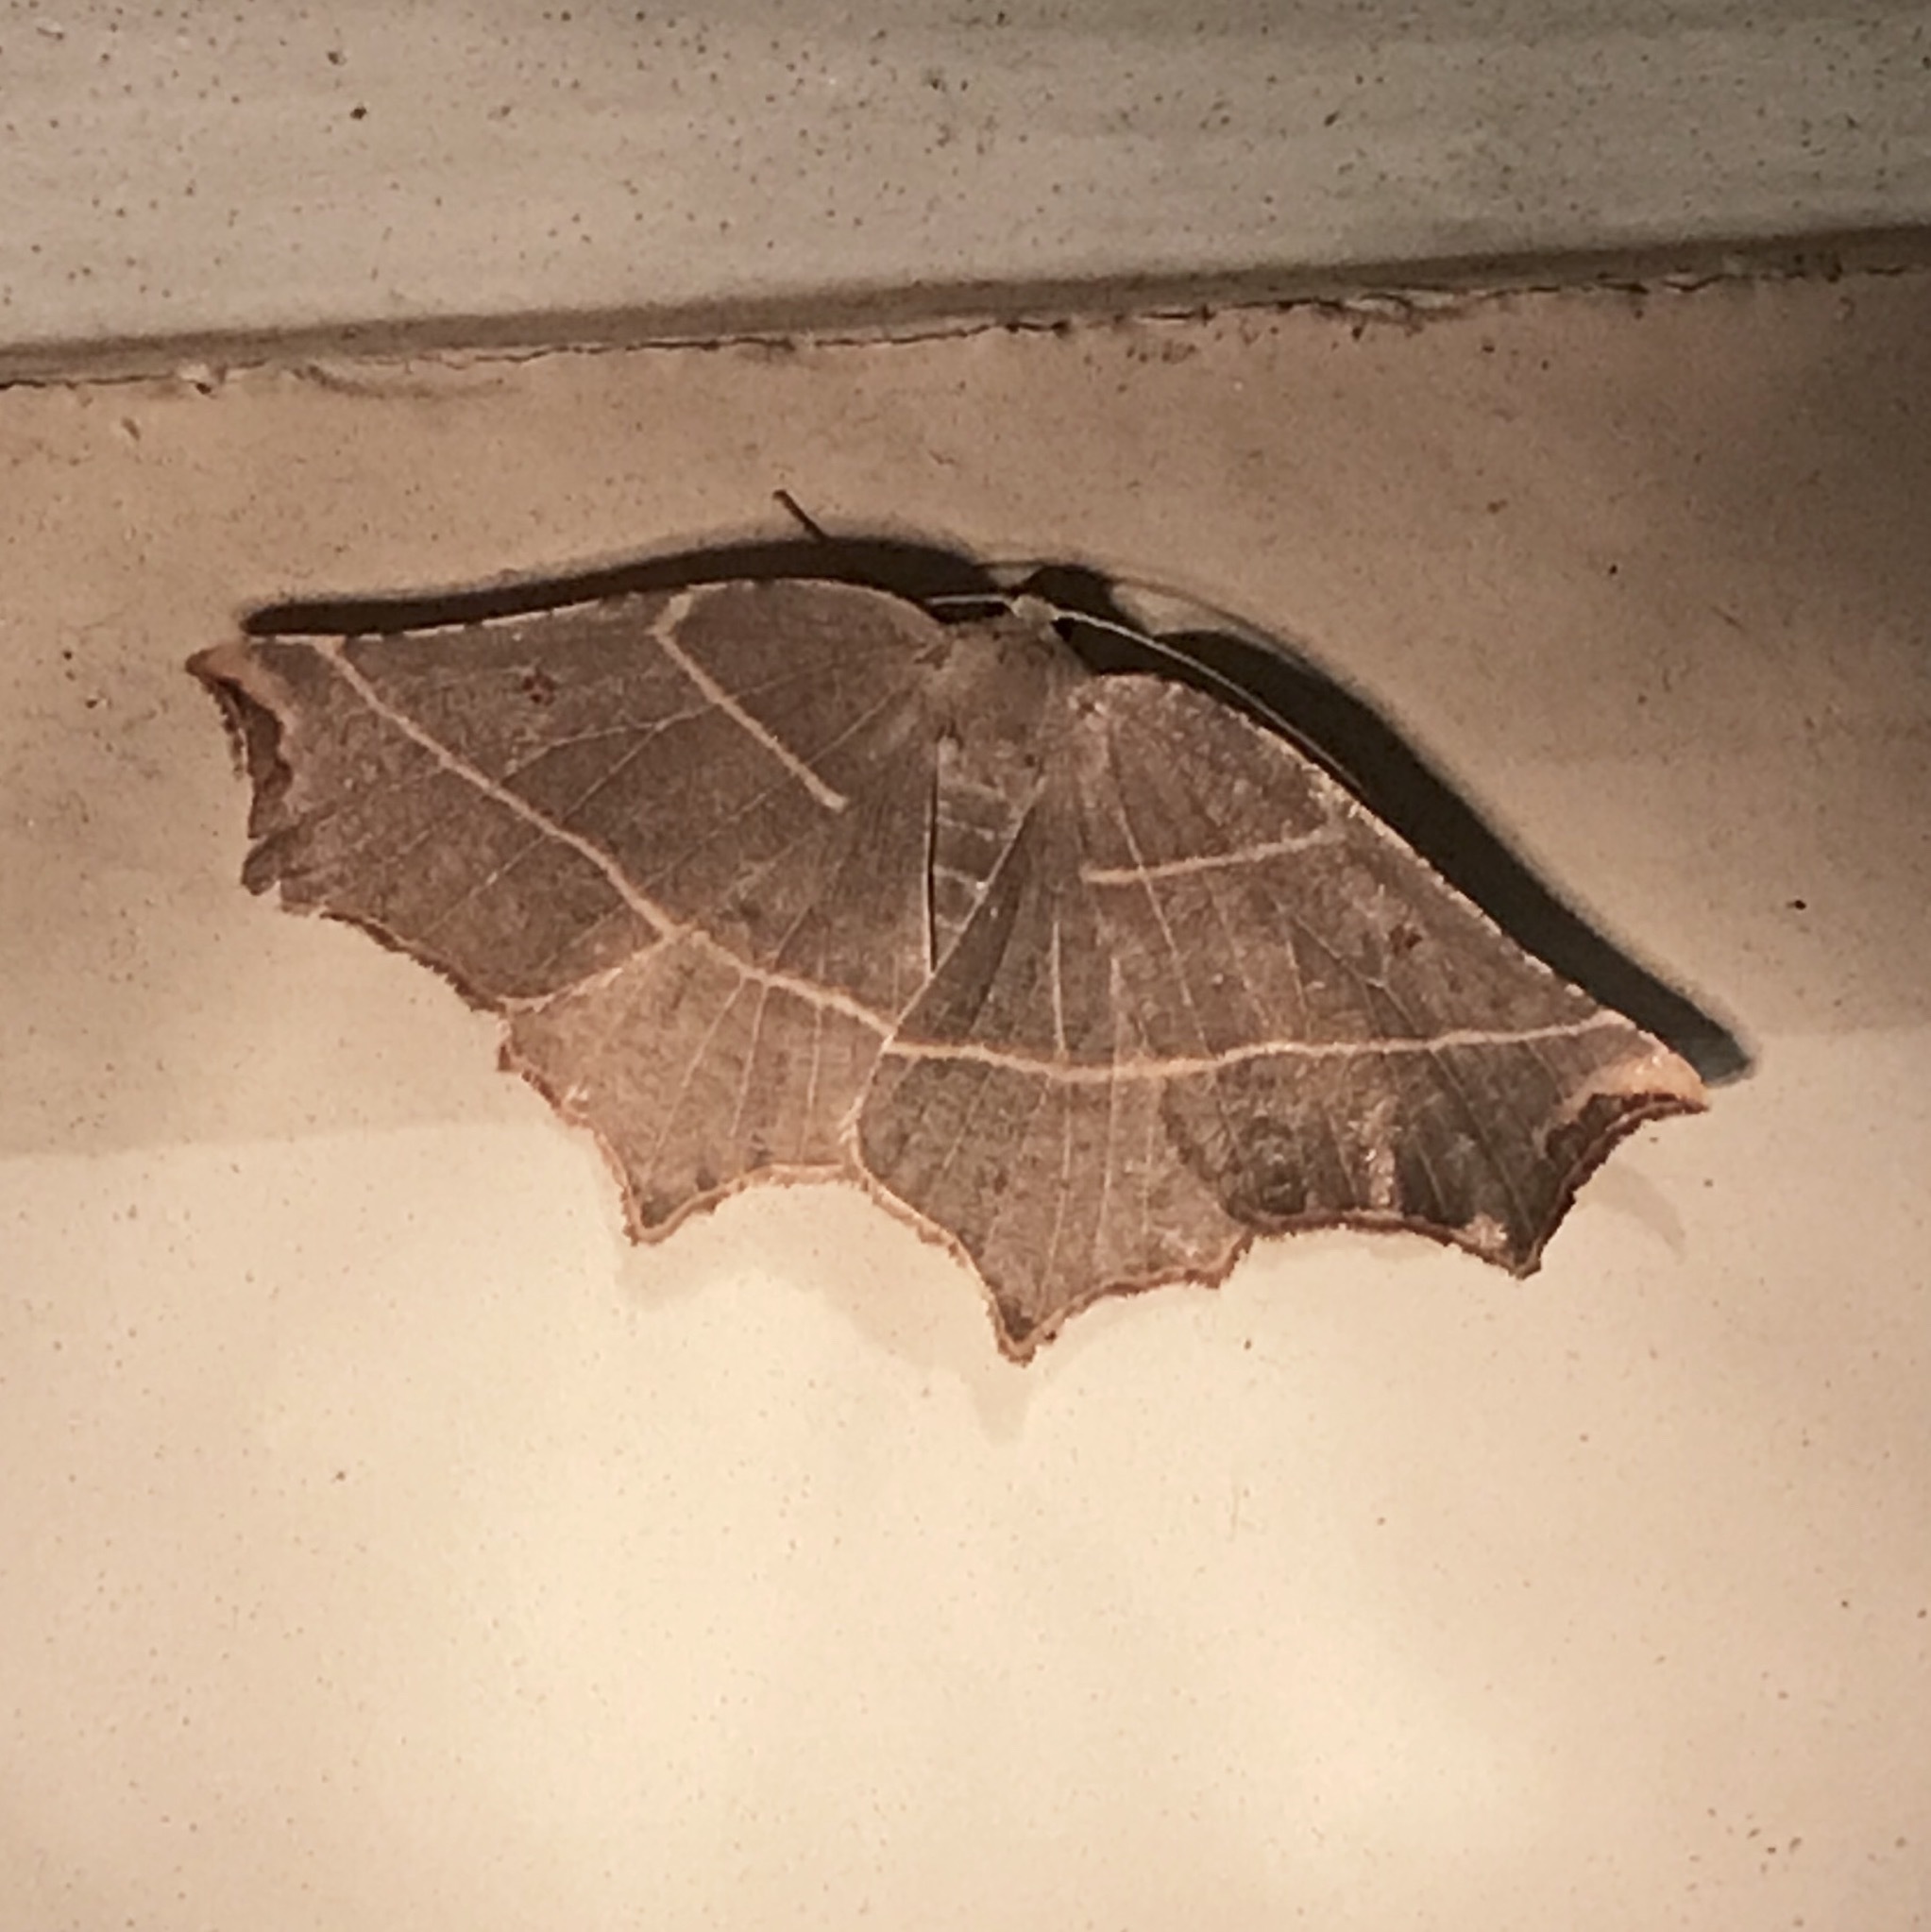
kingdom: Animalia
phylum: Arthropoda
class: Insecta
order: Lepidoptera
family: Geometridae
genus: Metanema
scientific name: Metanema inatomaria
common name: Pale metanema
